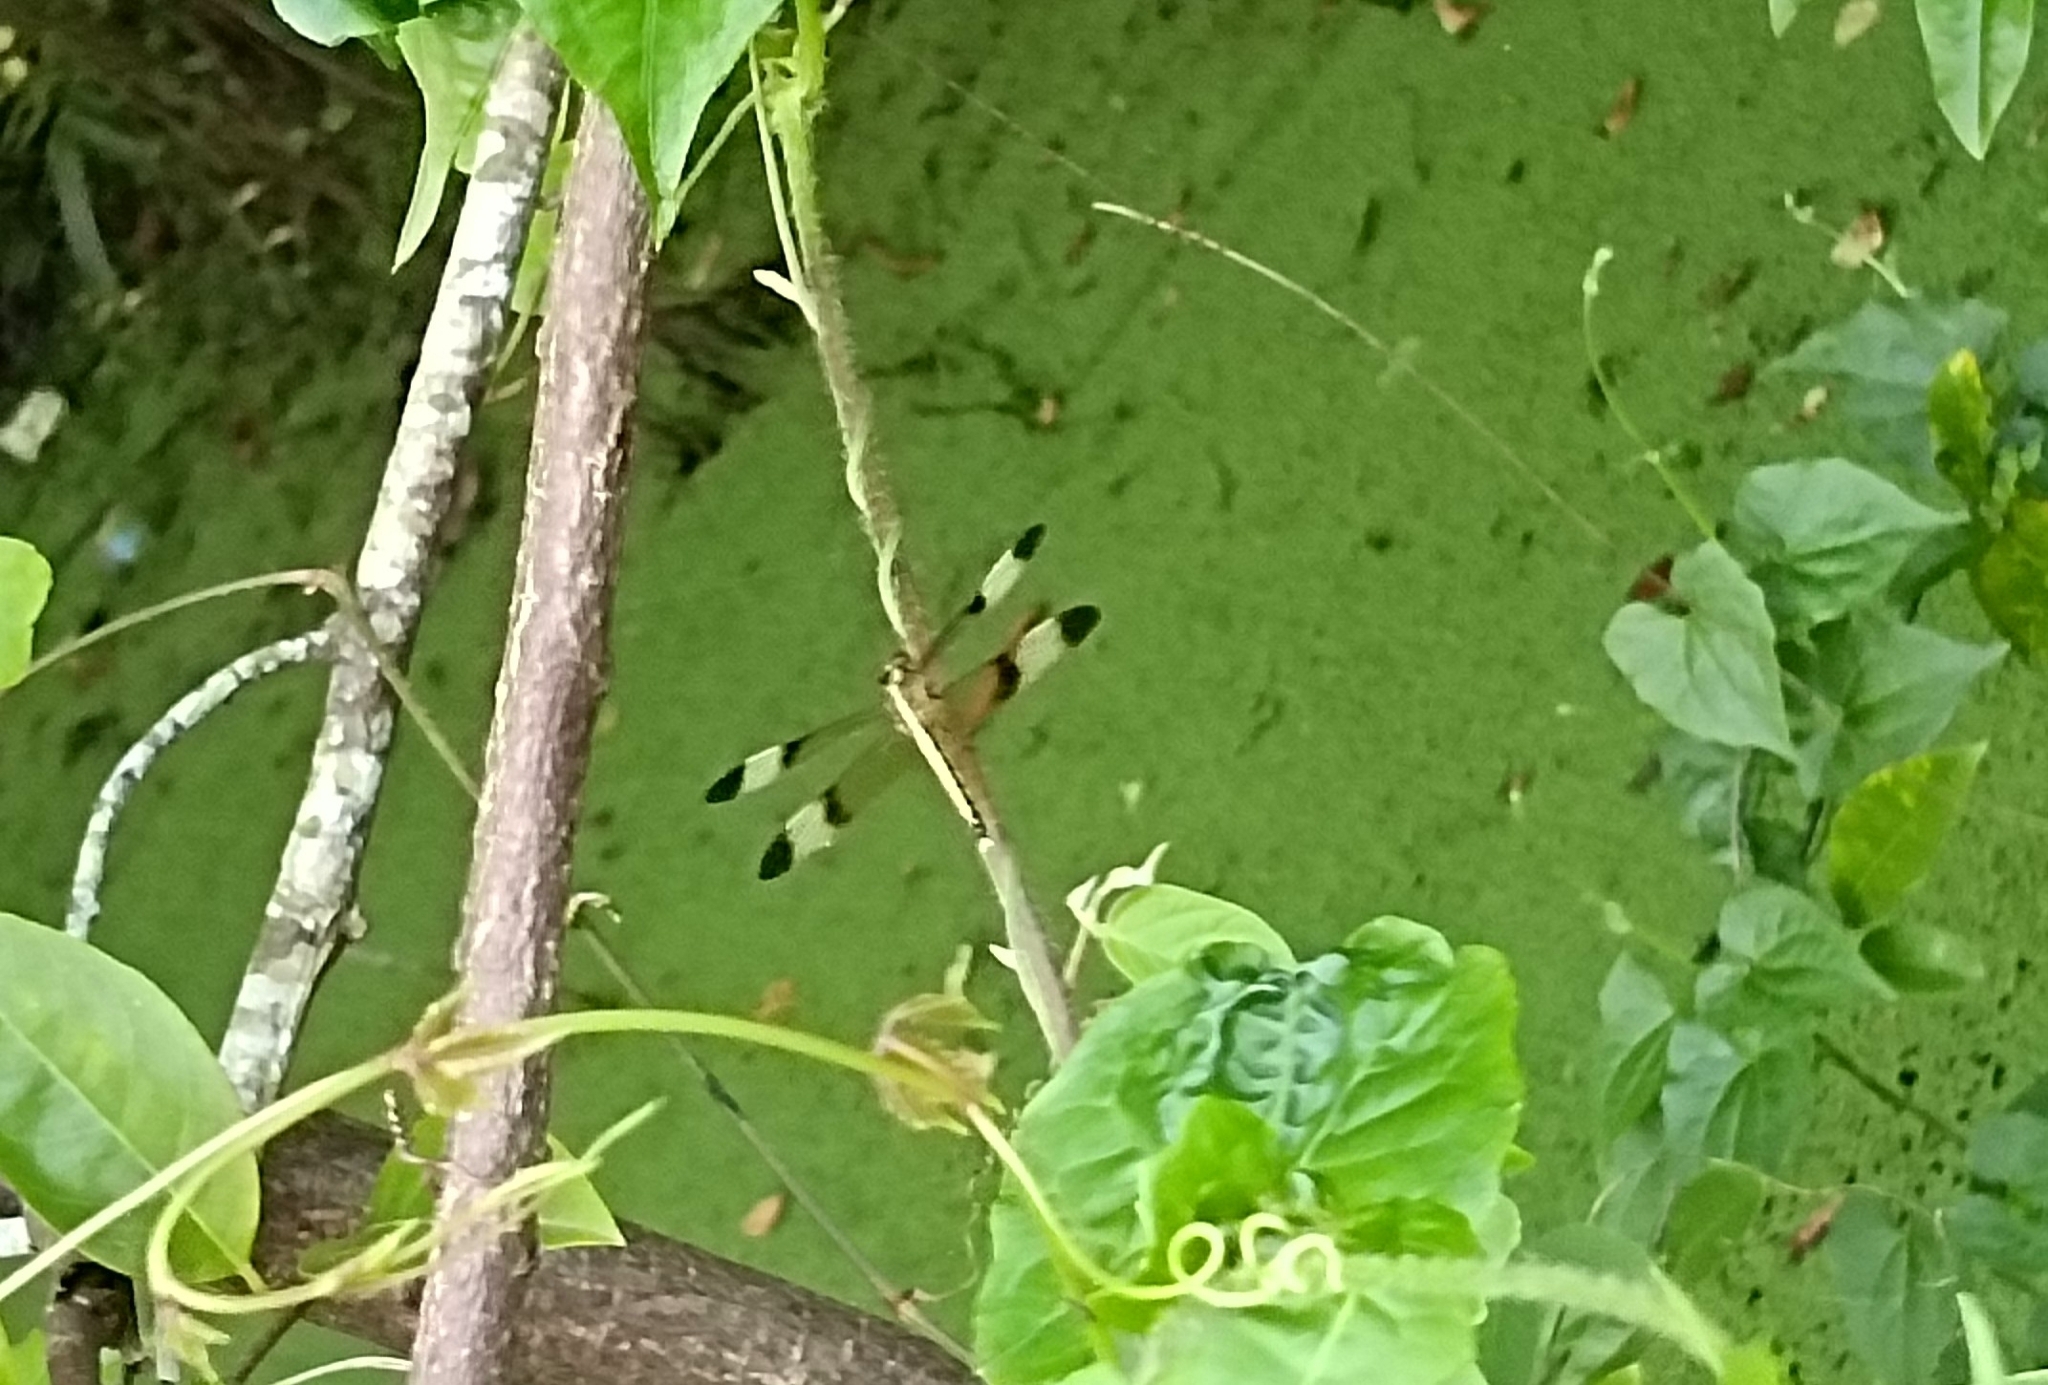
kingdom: Animalia
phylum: Arthropoda
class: Insecta
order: Odonata
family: Libellulidae
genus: Neurothemis
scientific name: Neurothemis tullia
